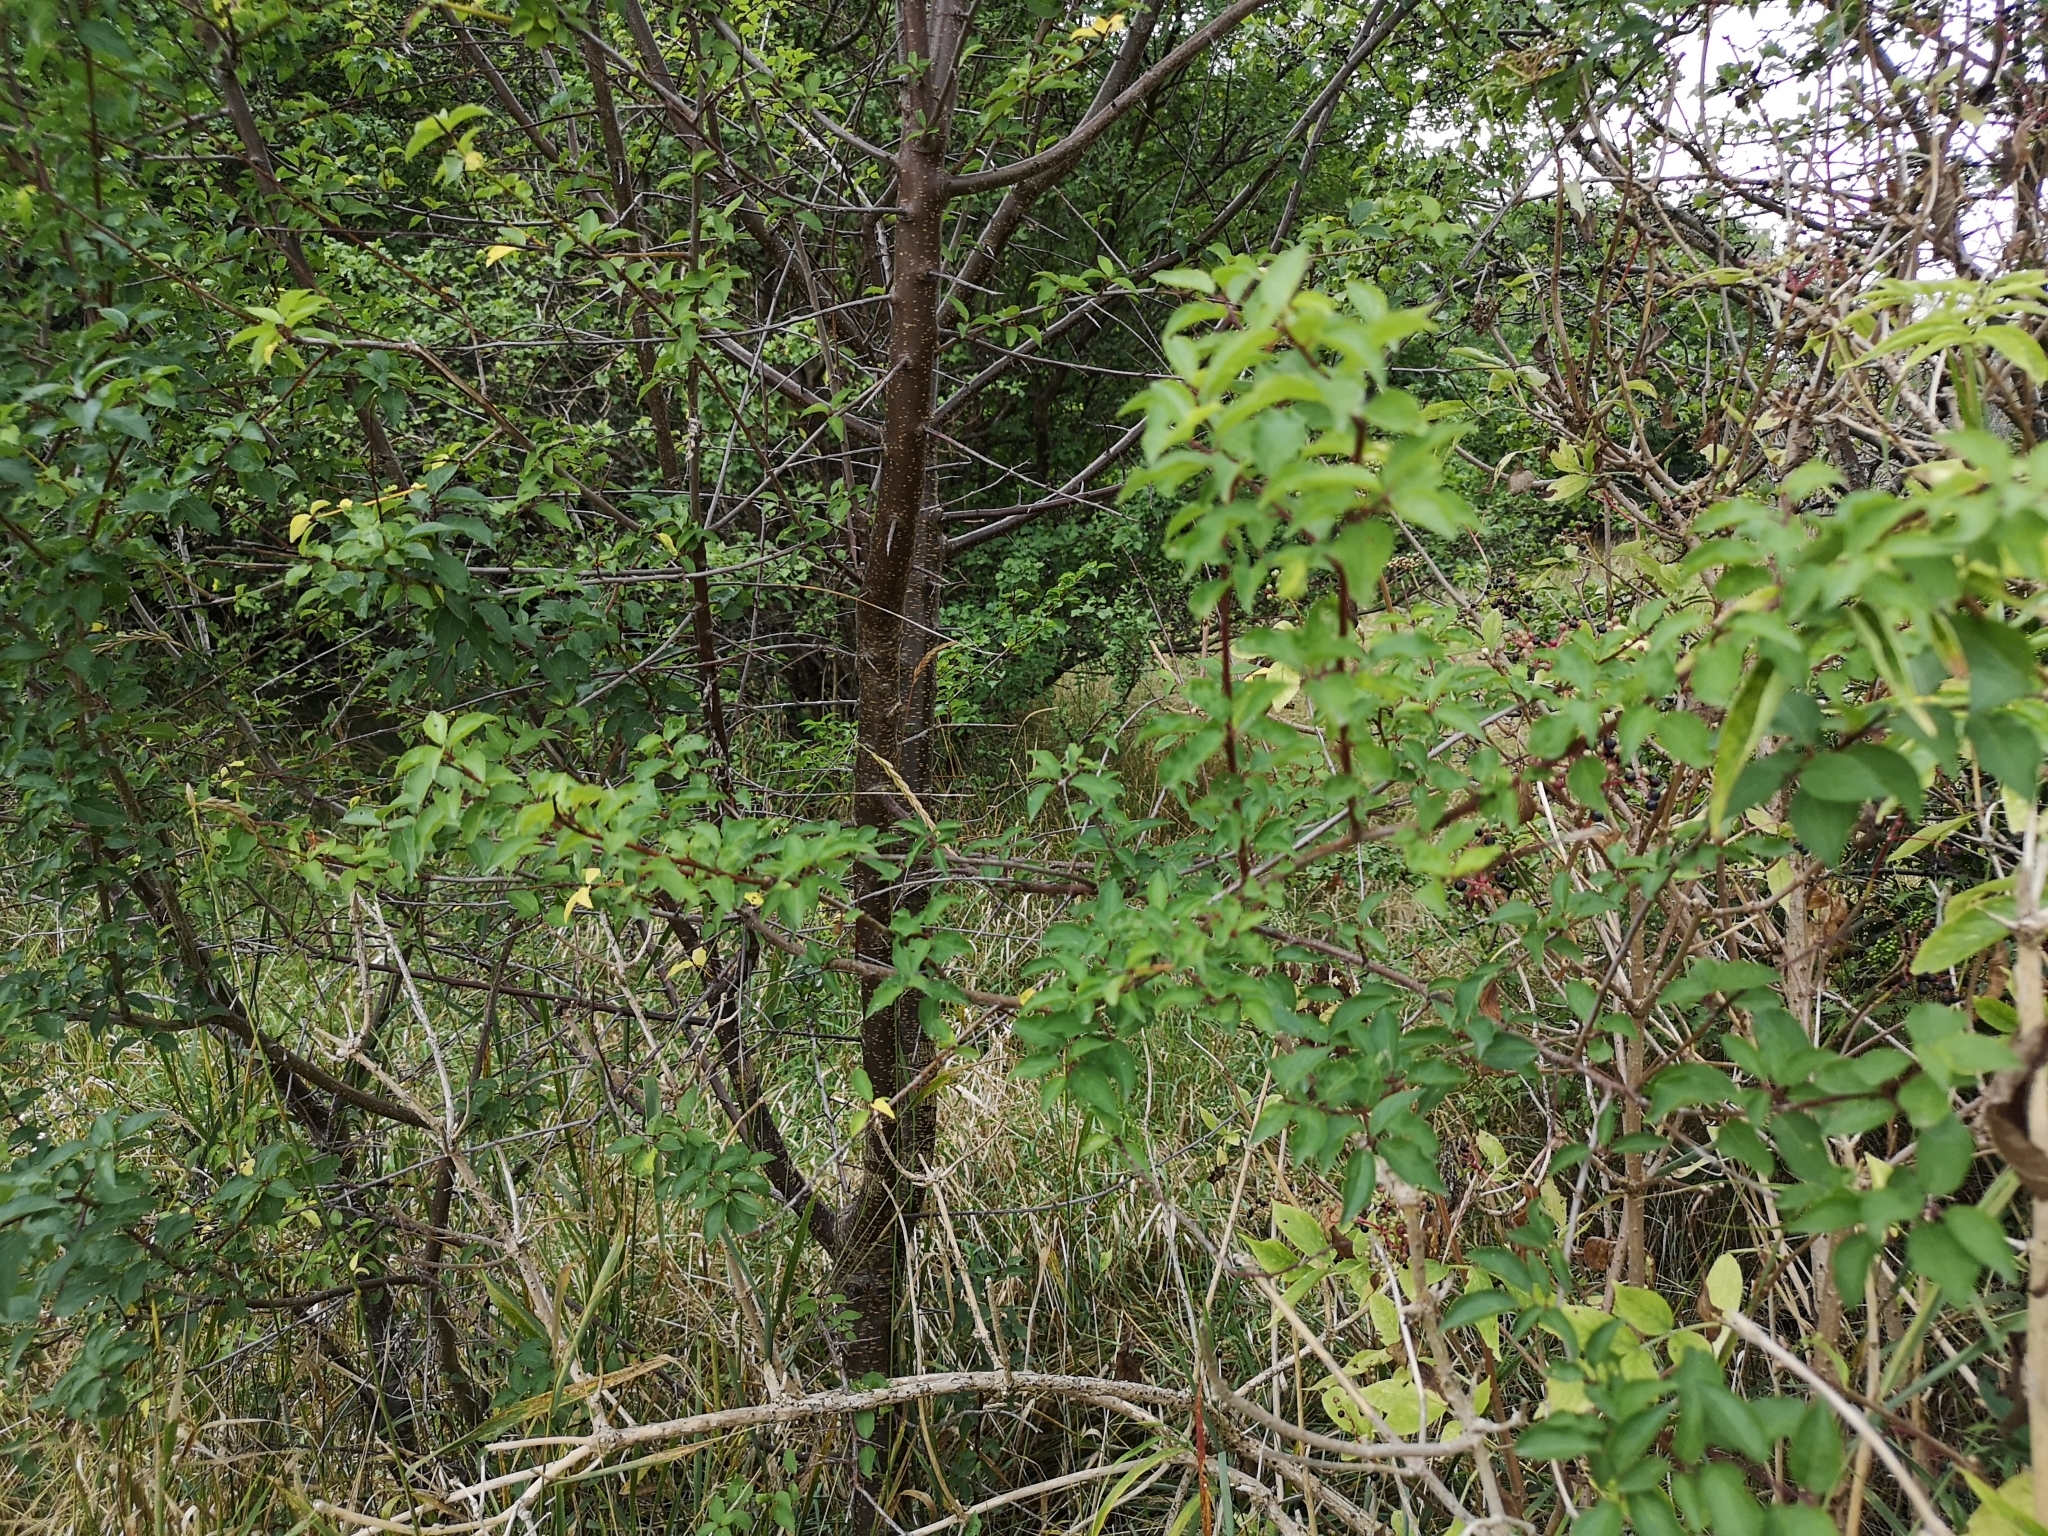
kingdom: Plantae
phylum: Tracheophyta
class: Magnoliopsida
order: Rosales
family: Rosaceae
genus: Prunus
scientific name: Prunus cerasifera
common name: Cherry plum
